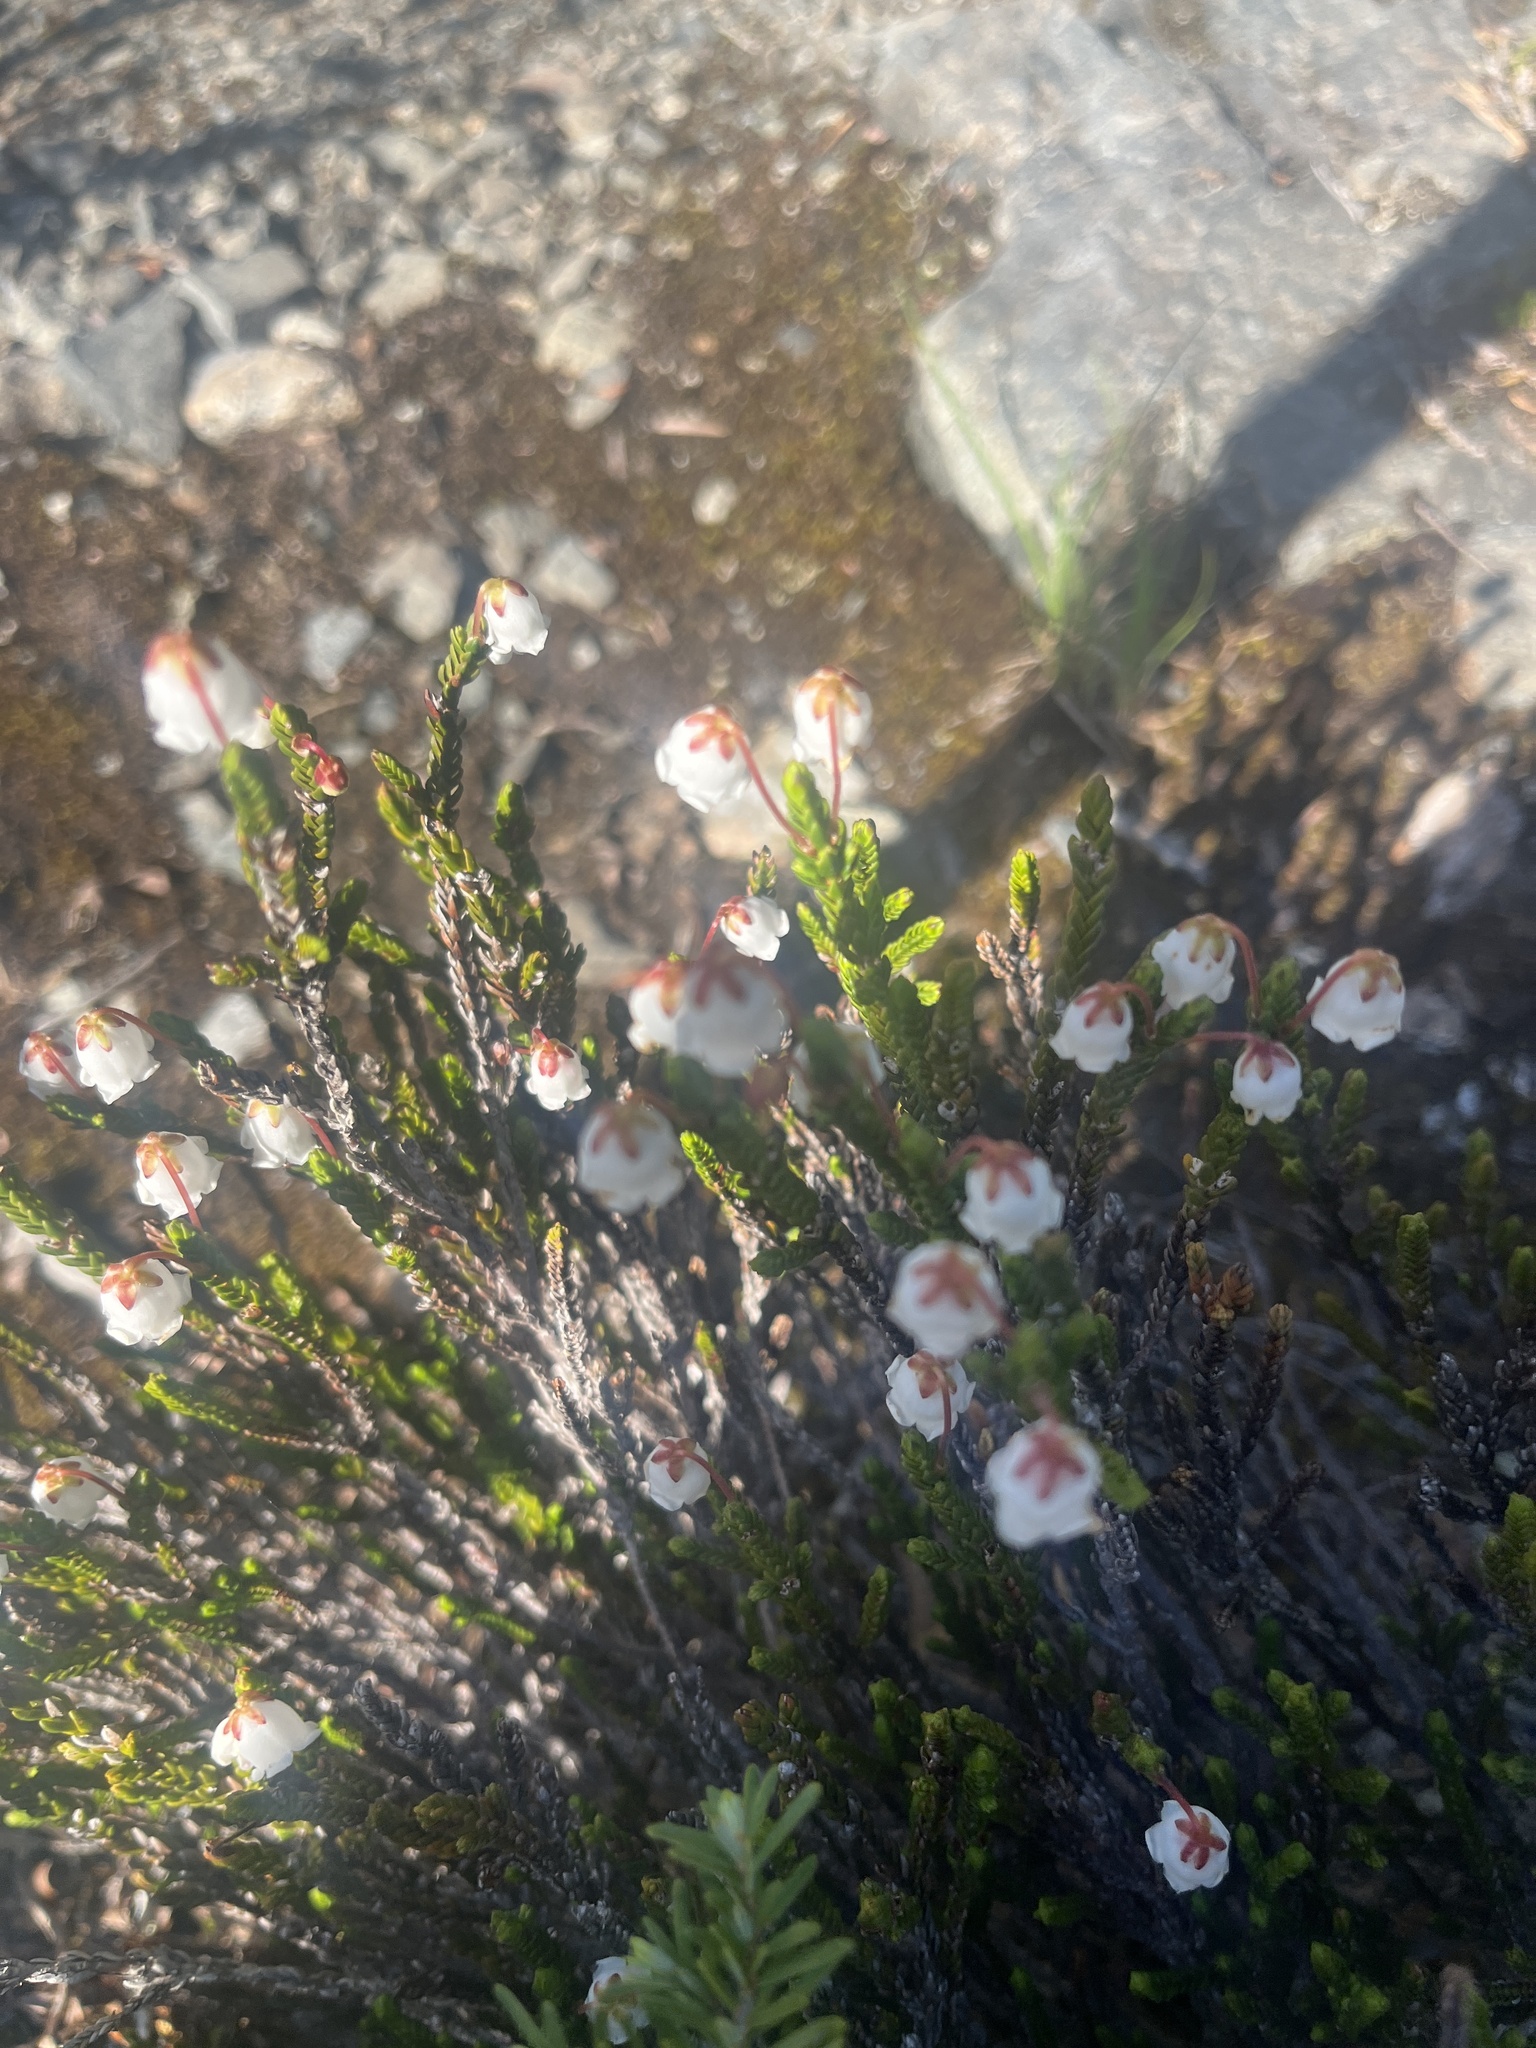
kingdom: Plantae
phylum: Tracheophyta
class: Magnoliopsida
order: Ericales
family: Ericaceae
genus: Cassiope
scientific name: Cassiope mertensiana
